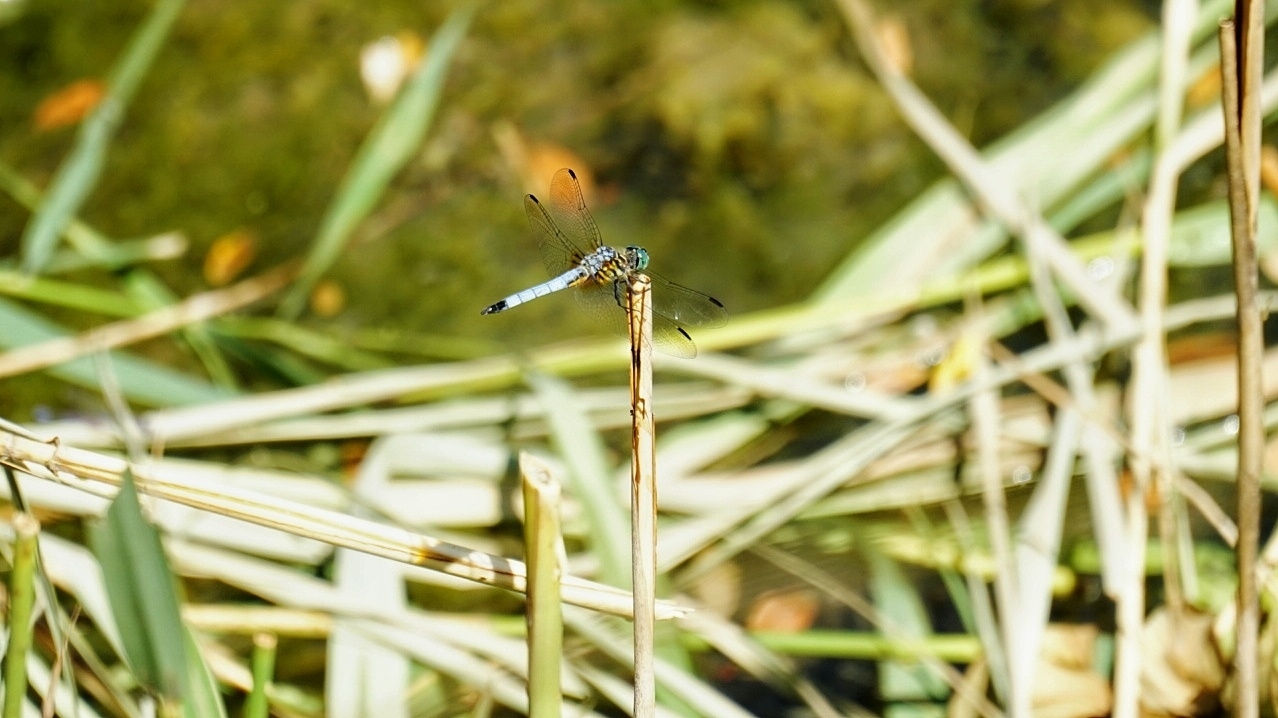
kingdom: Animalia
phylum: Arthropoda
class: Insecta
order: Odonata
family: Libellulidae
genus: Pachydiplax
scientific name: Pachydiplax longipennis
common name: Blue dasher
